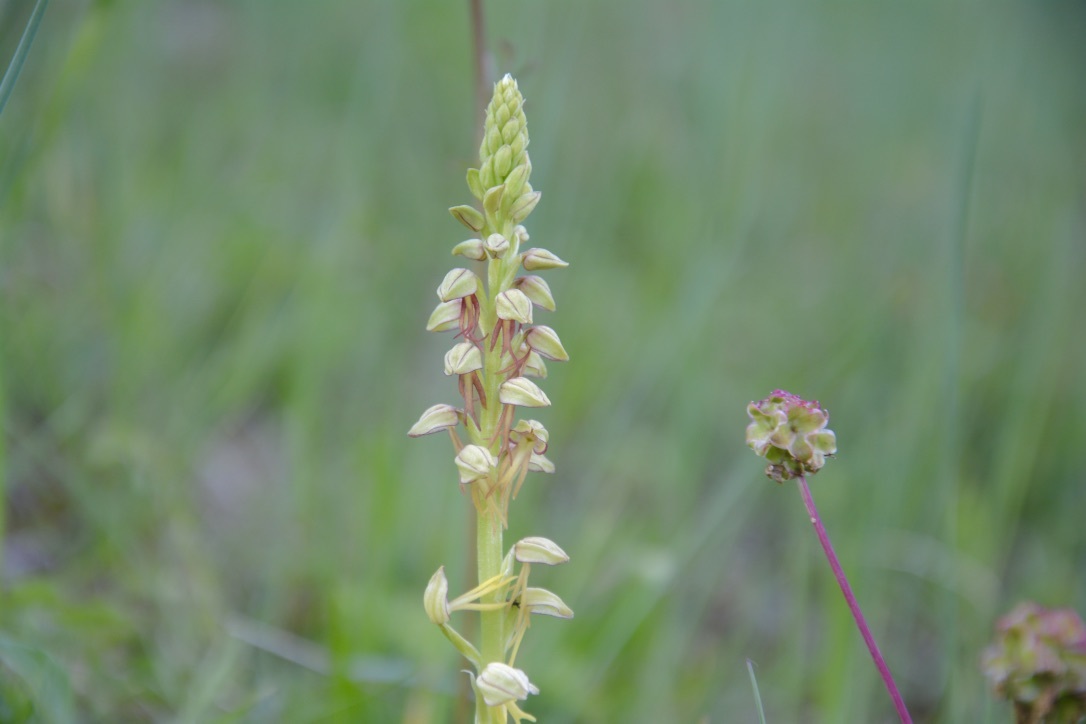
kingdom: Plantae
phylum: Tracheophyta
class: Liliopsida
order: Asparagales
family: Orchidaceae
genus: Orchis
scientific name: Orchis anthropophora
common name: Man orchid
